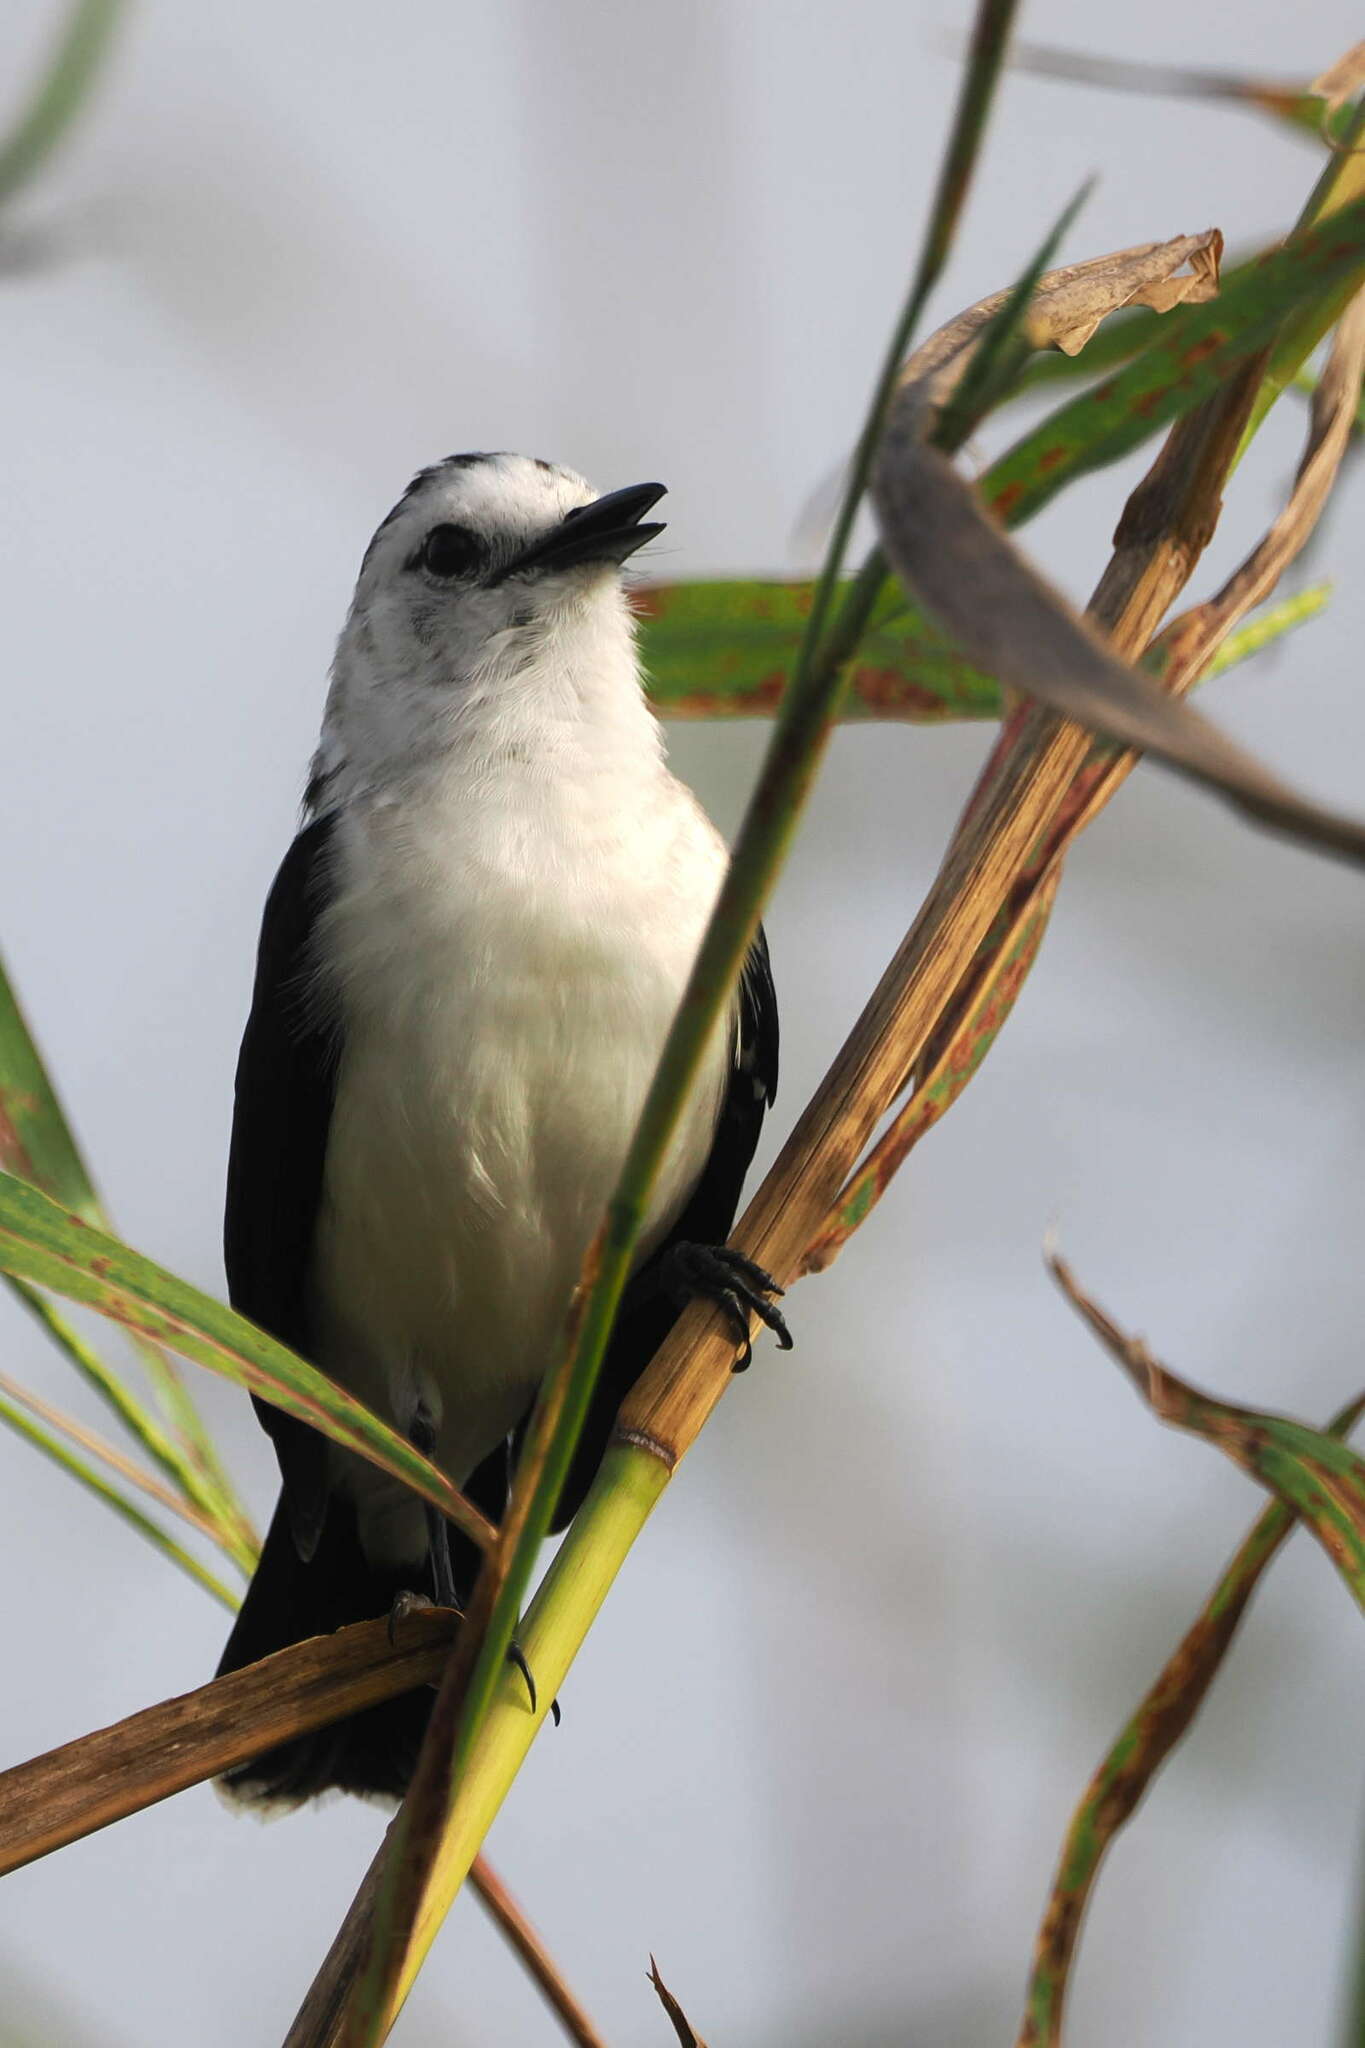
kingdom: Animalia
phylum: Chordata
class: Aves
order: Passeriformes
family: Tyrannidae
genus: Fluvicola
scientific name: Fluvicola pica
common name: Pied water-tyrant
